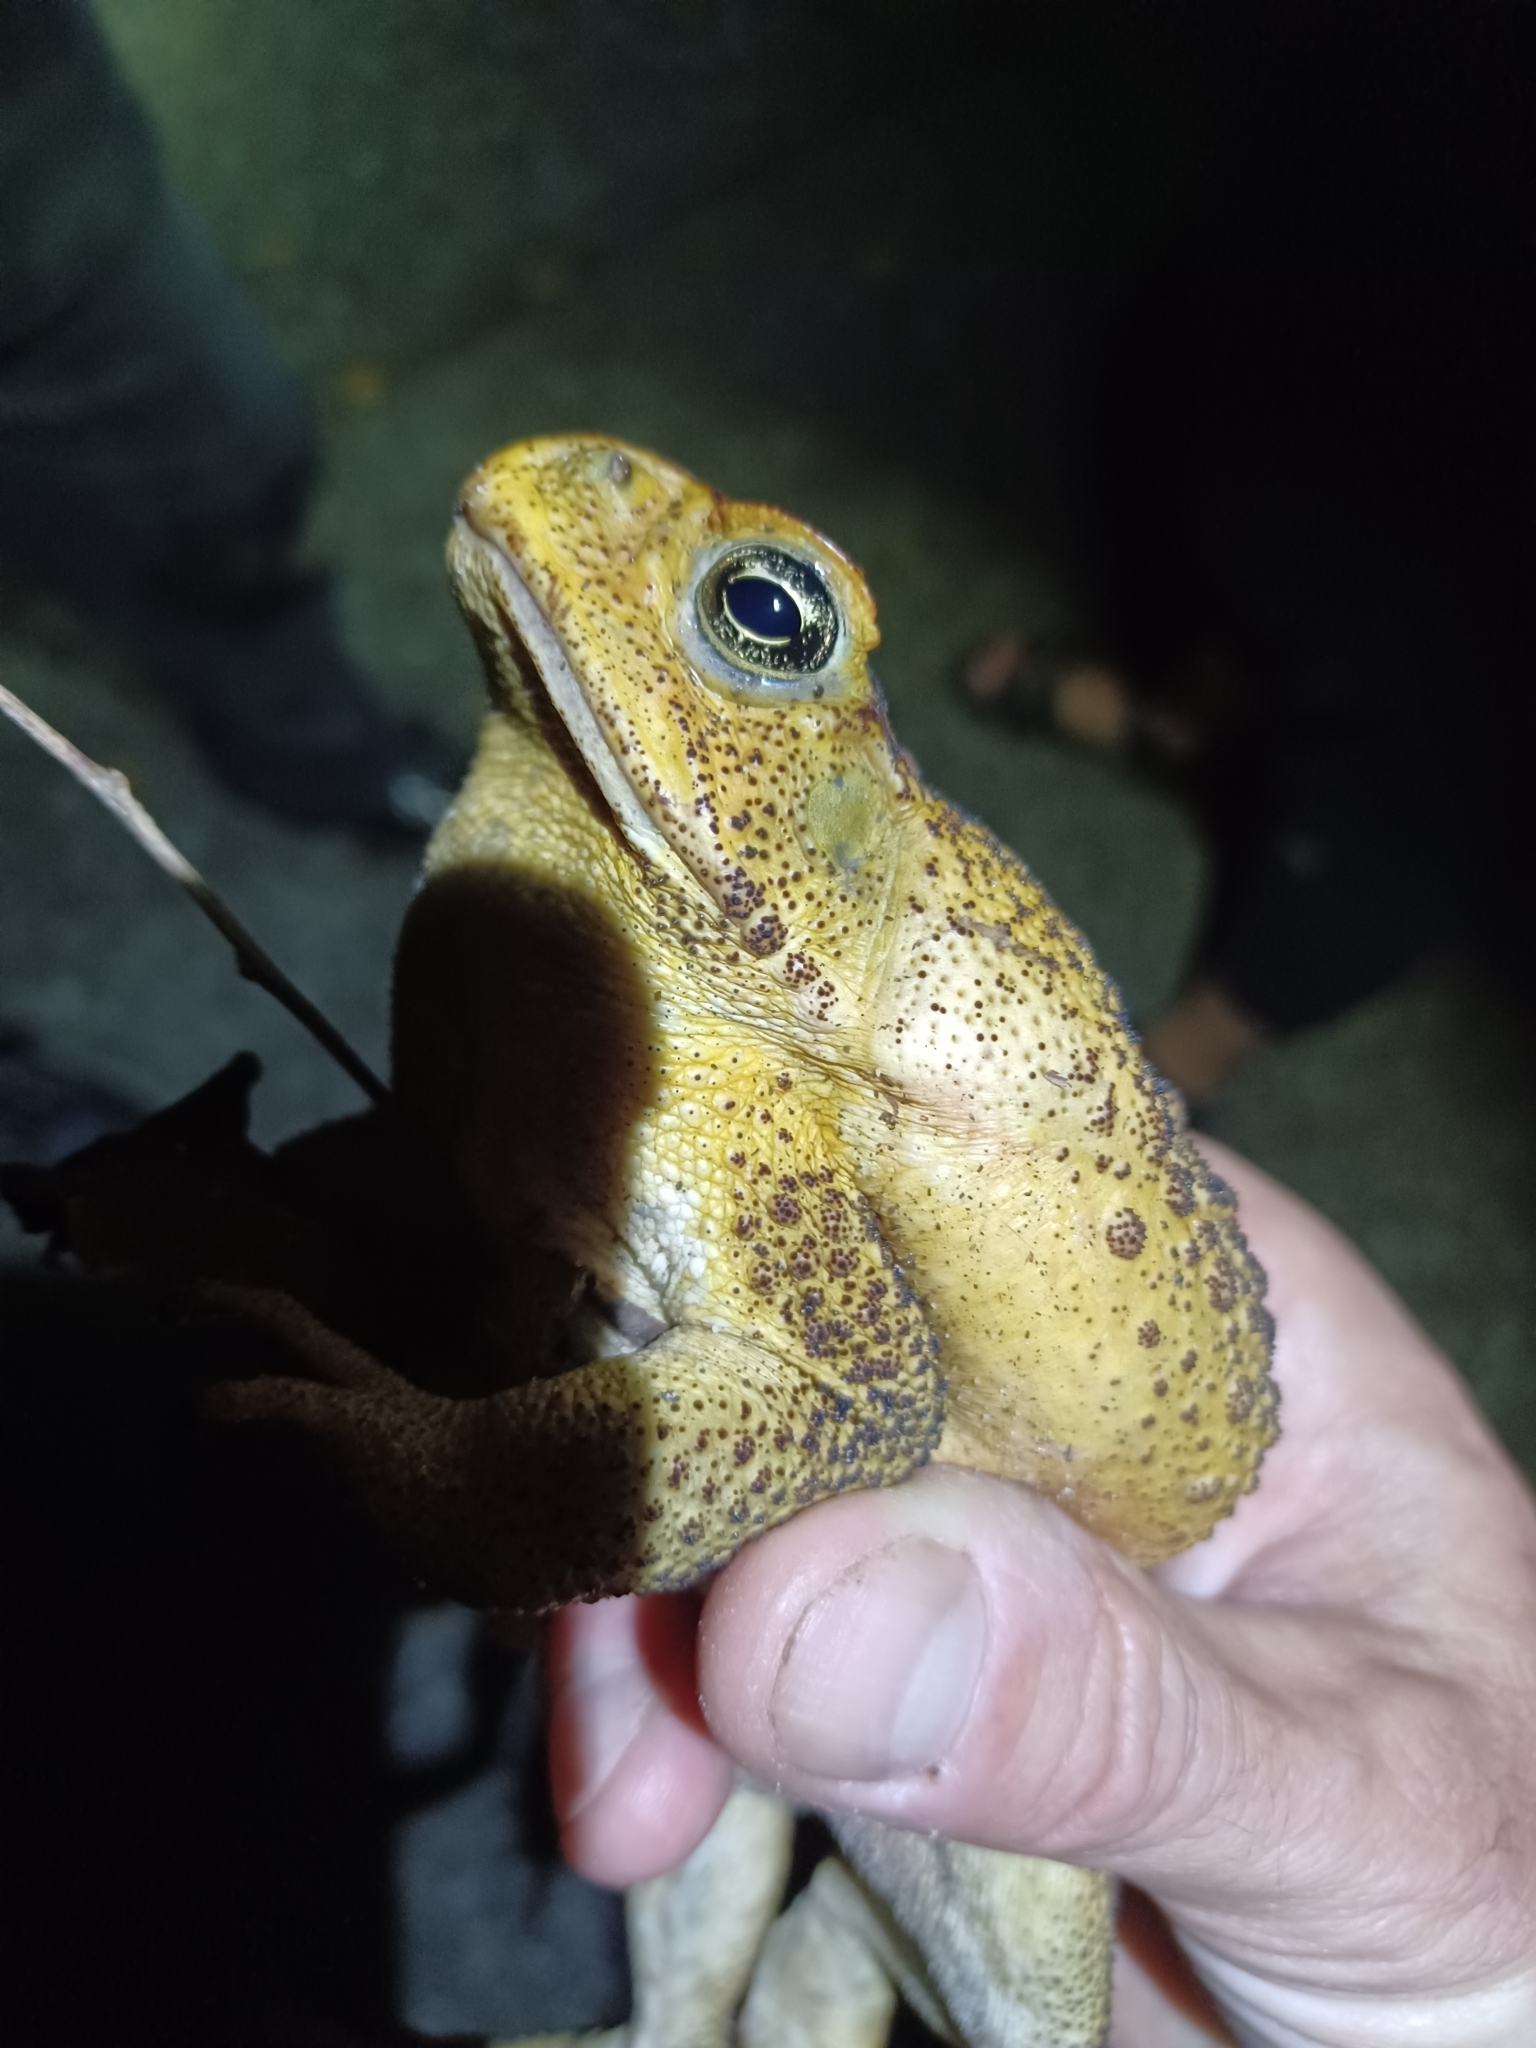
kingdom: Animalia
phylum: Chordata
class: Amphibia
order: Anura
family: Bufonidae
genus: Rhinella
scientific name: Rhinella marina
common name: Cane toad
